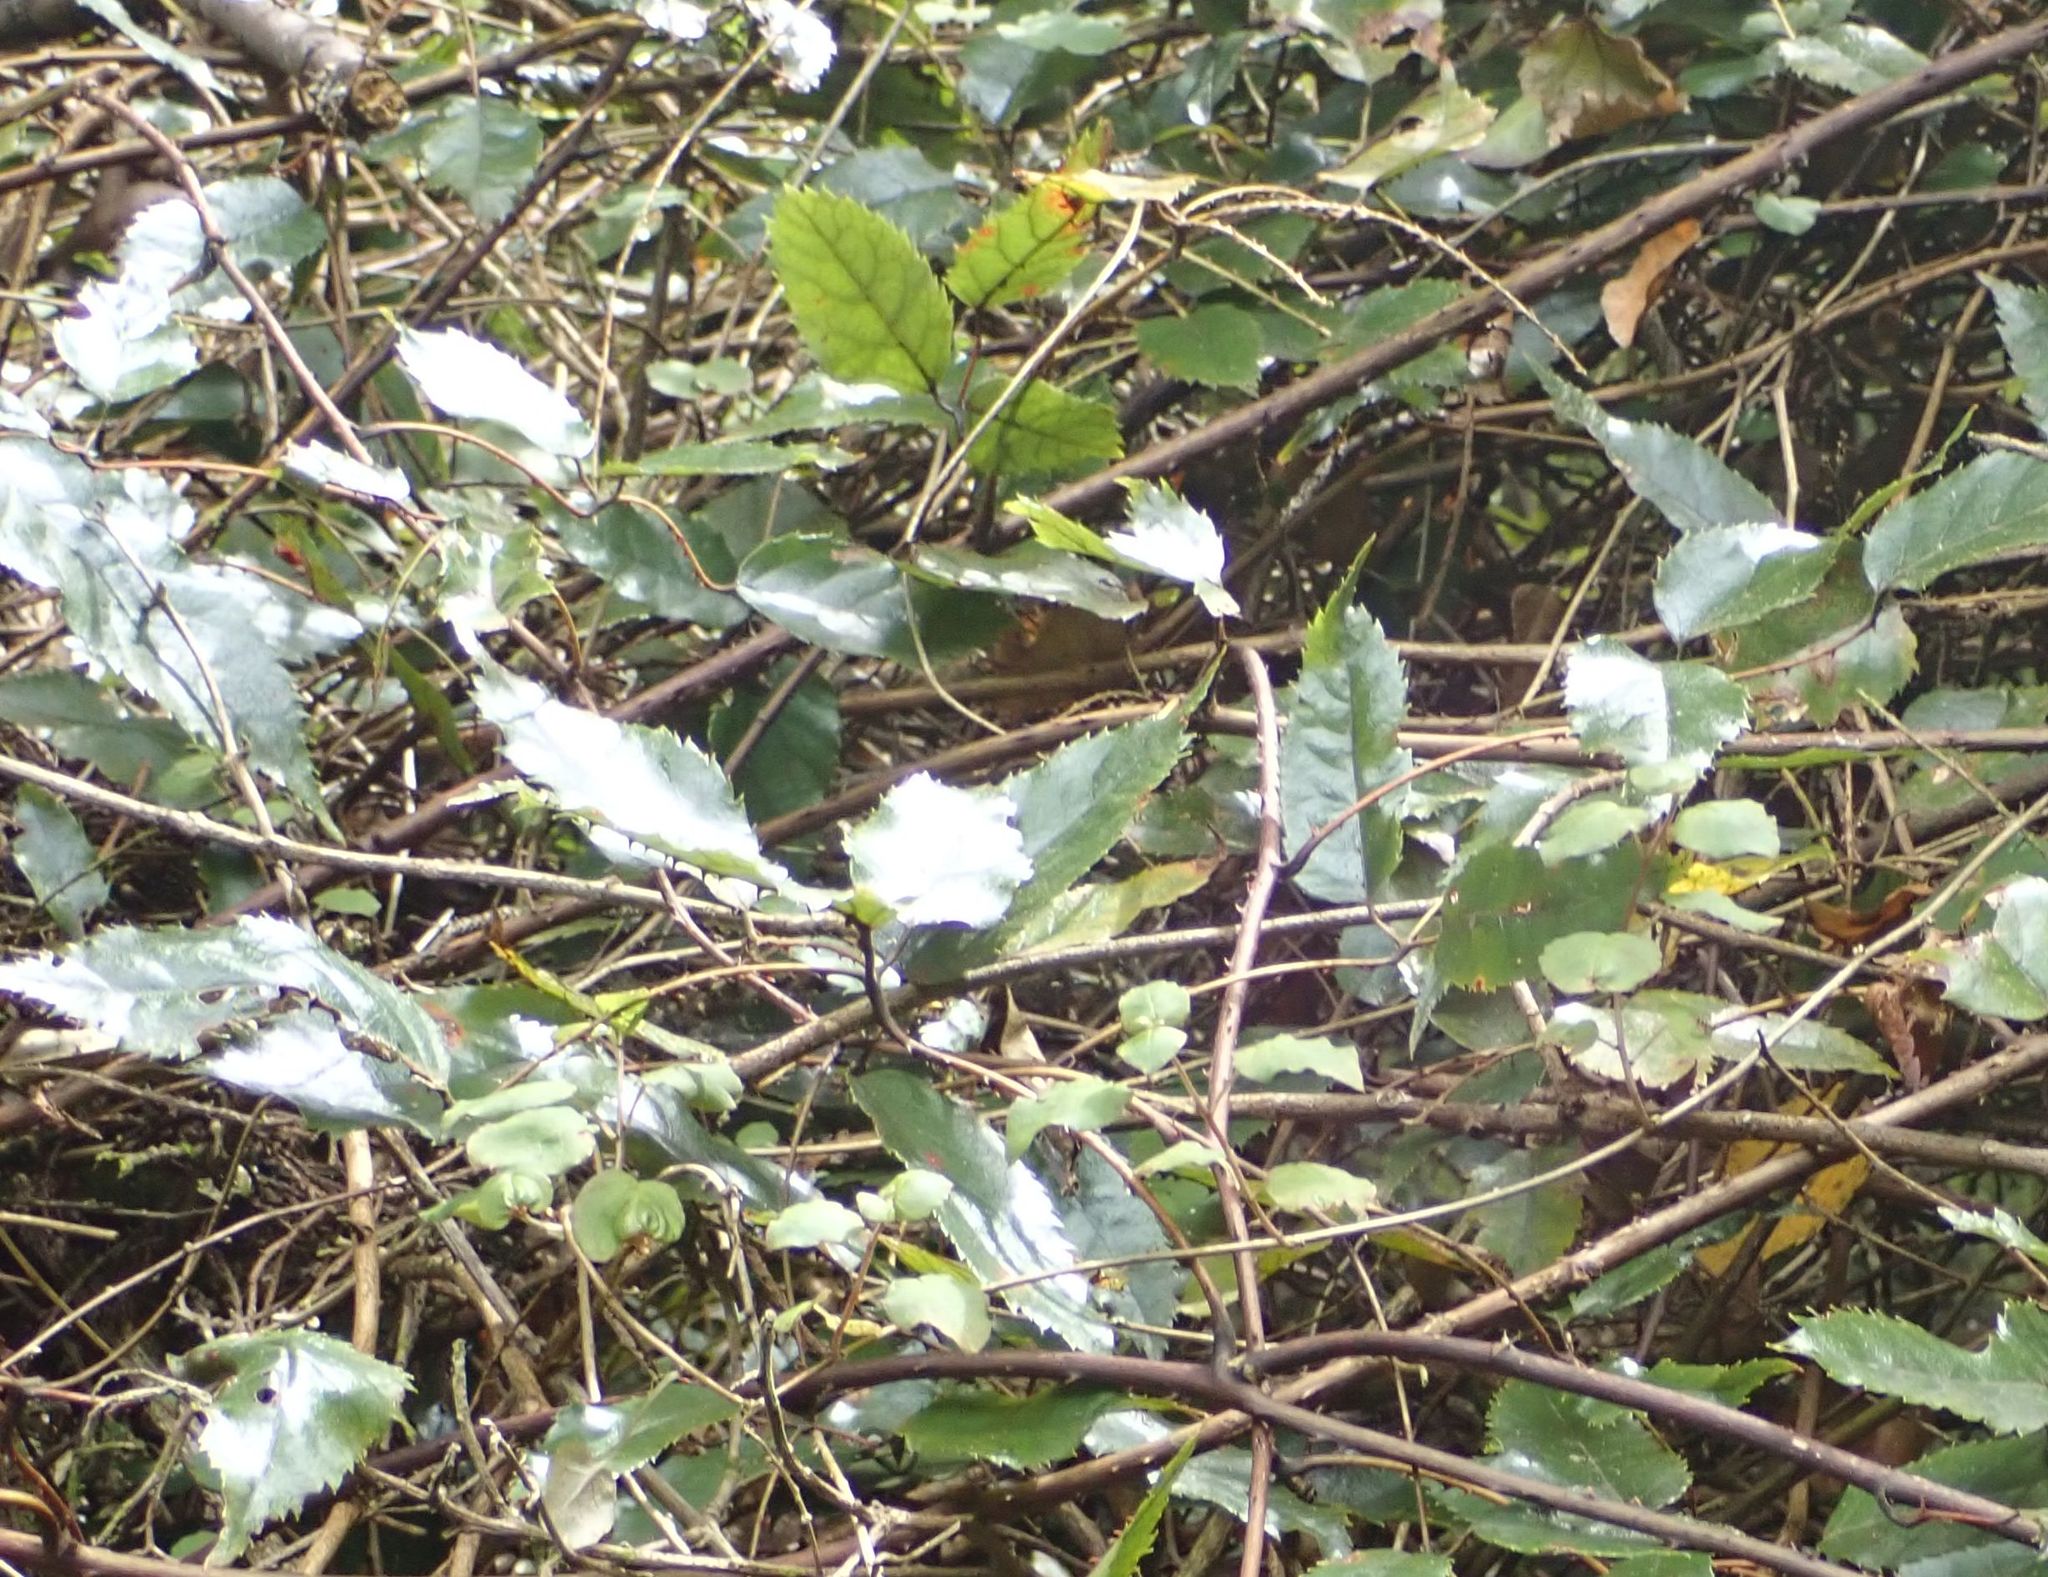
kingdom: Plantae
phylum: Tracheophyta
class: Magnoliopsida
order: Rosales
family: Rosaceae
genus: Rubus
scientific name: Rubus cissoides
